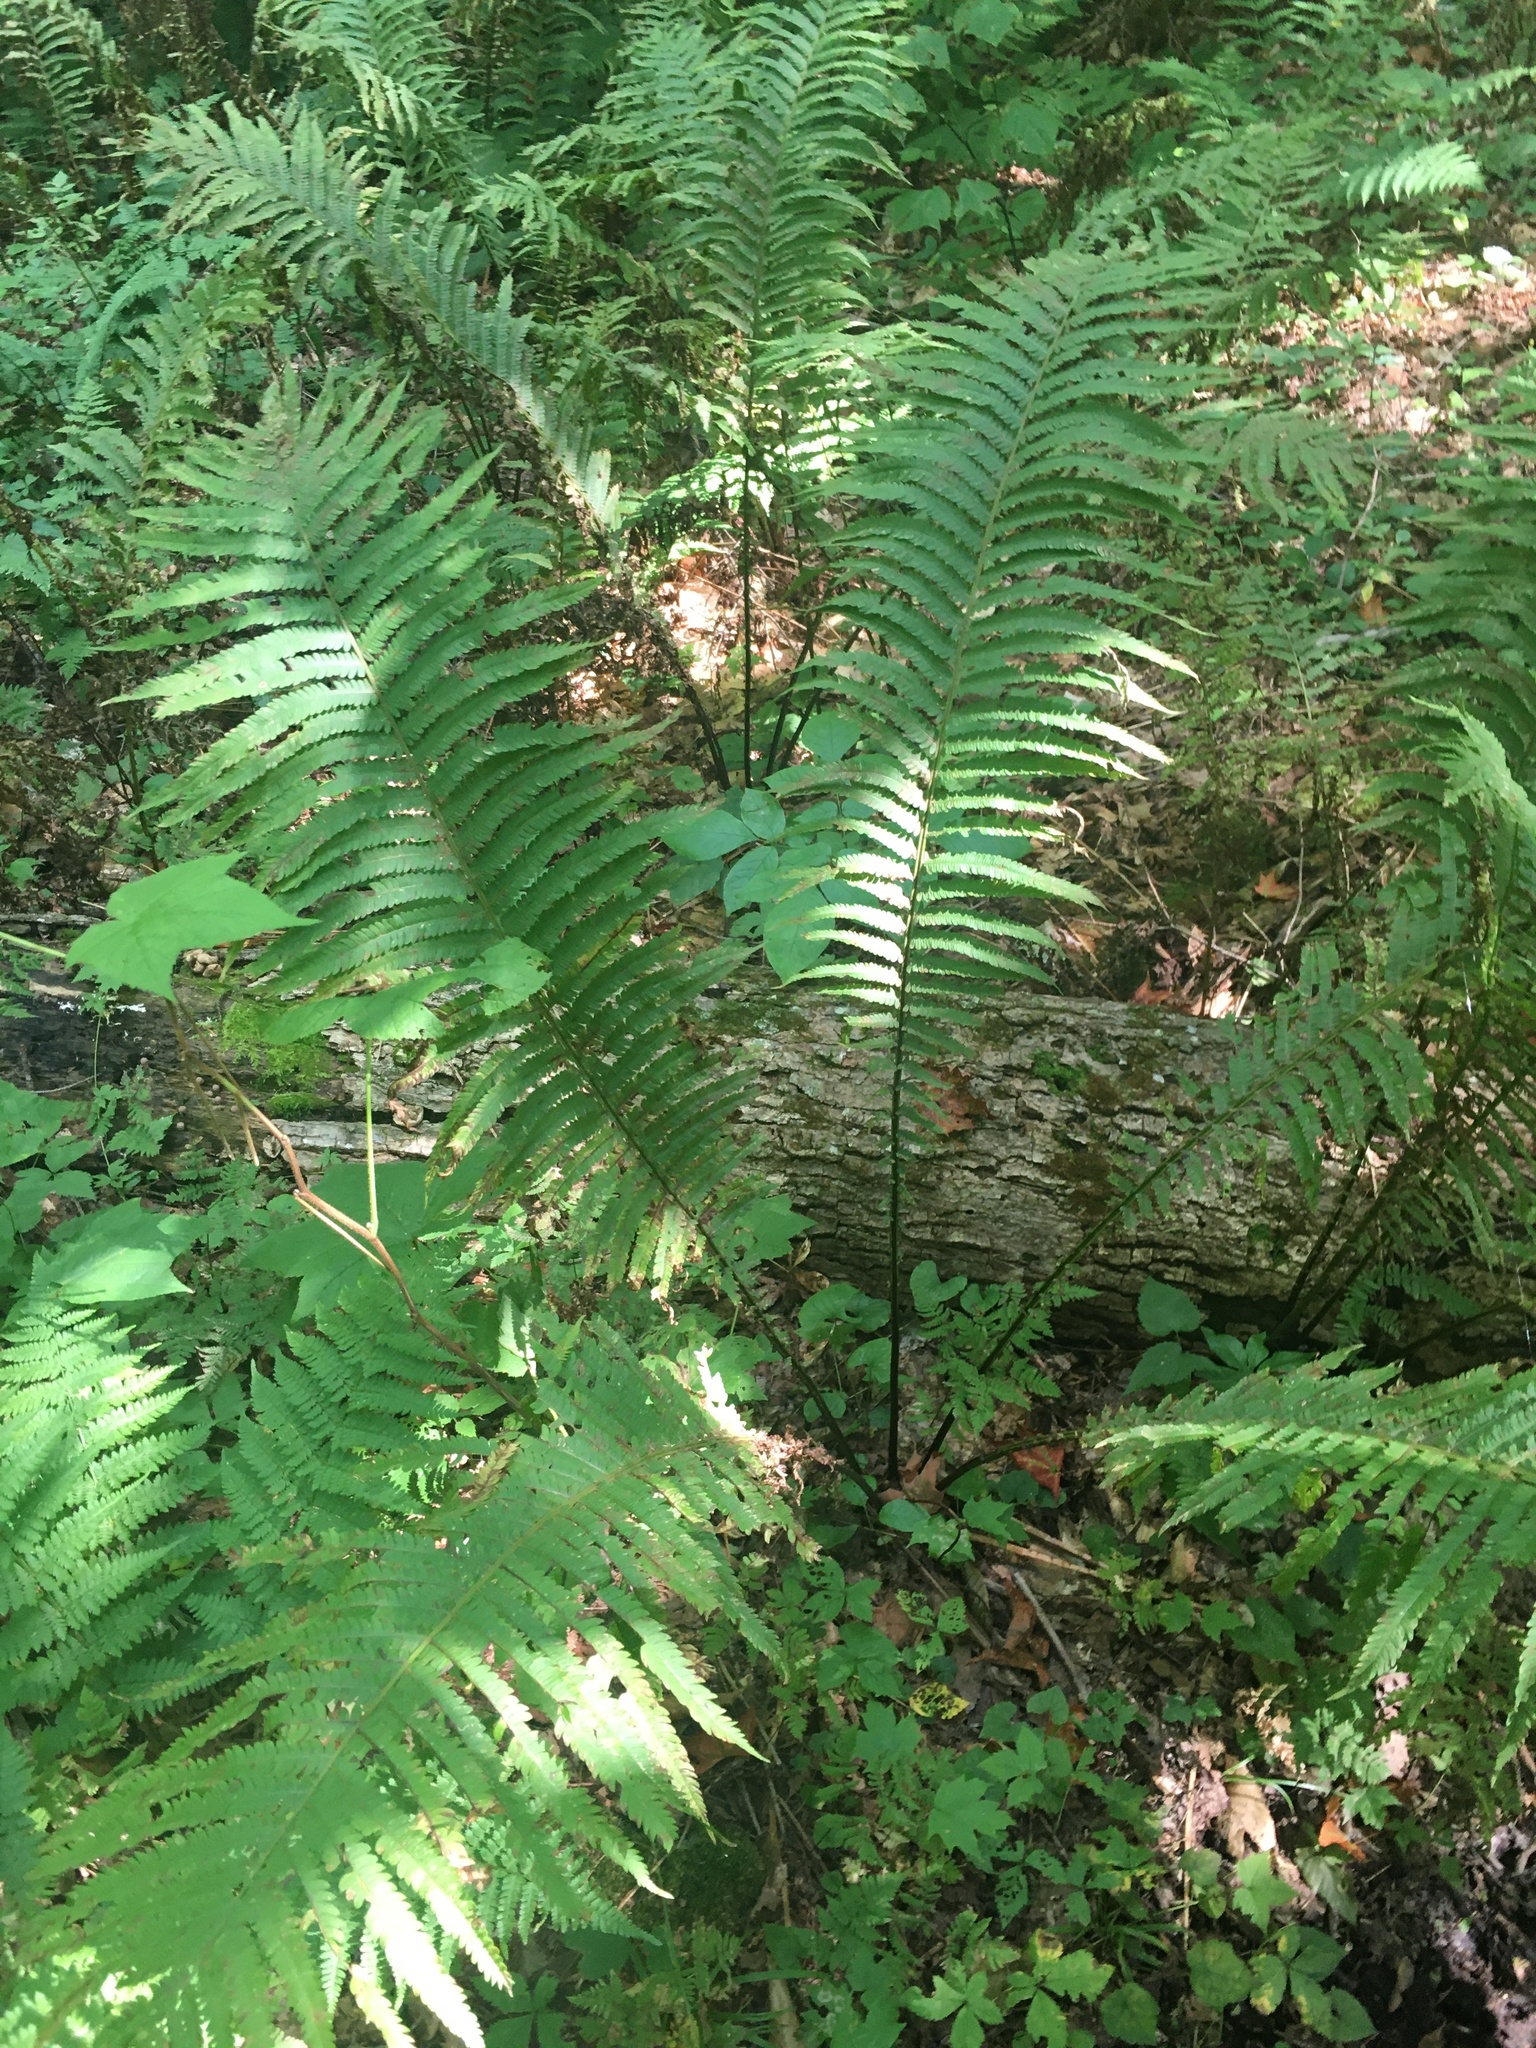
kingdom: Plantae
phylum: Tracheophyta
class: Polypodiopsida
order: Polypodiales
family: Onocleaceae
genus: Matteuccia
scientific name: Matteuccia struthiopteris
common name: Ostrich fern
